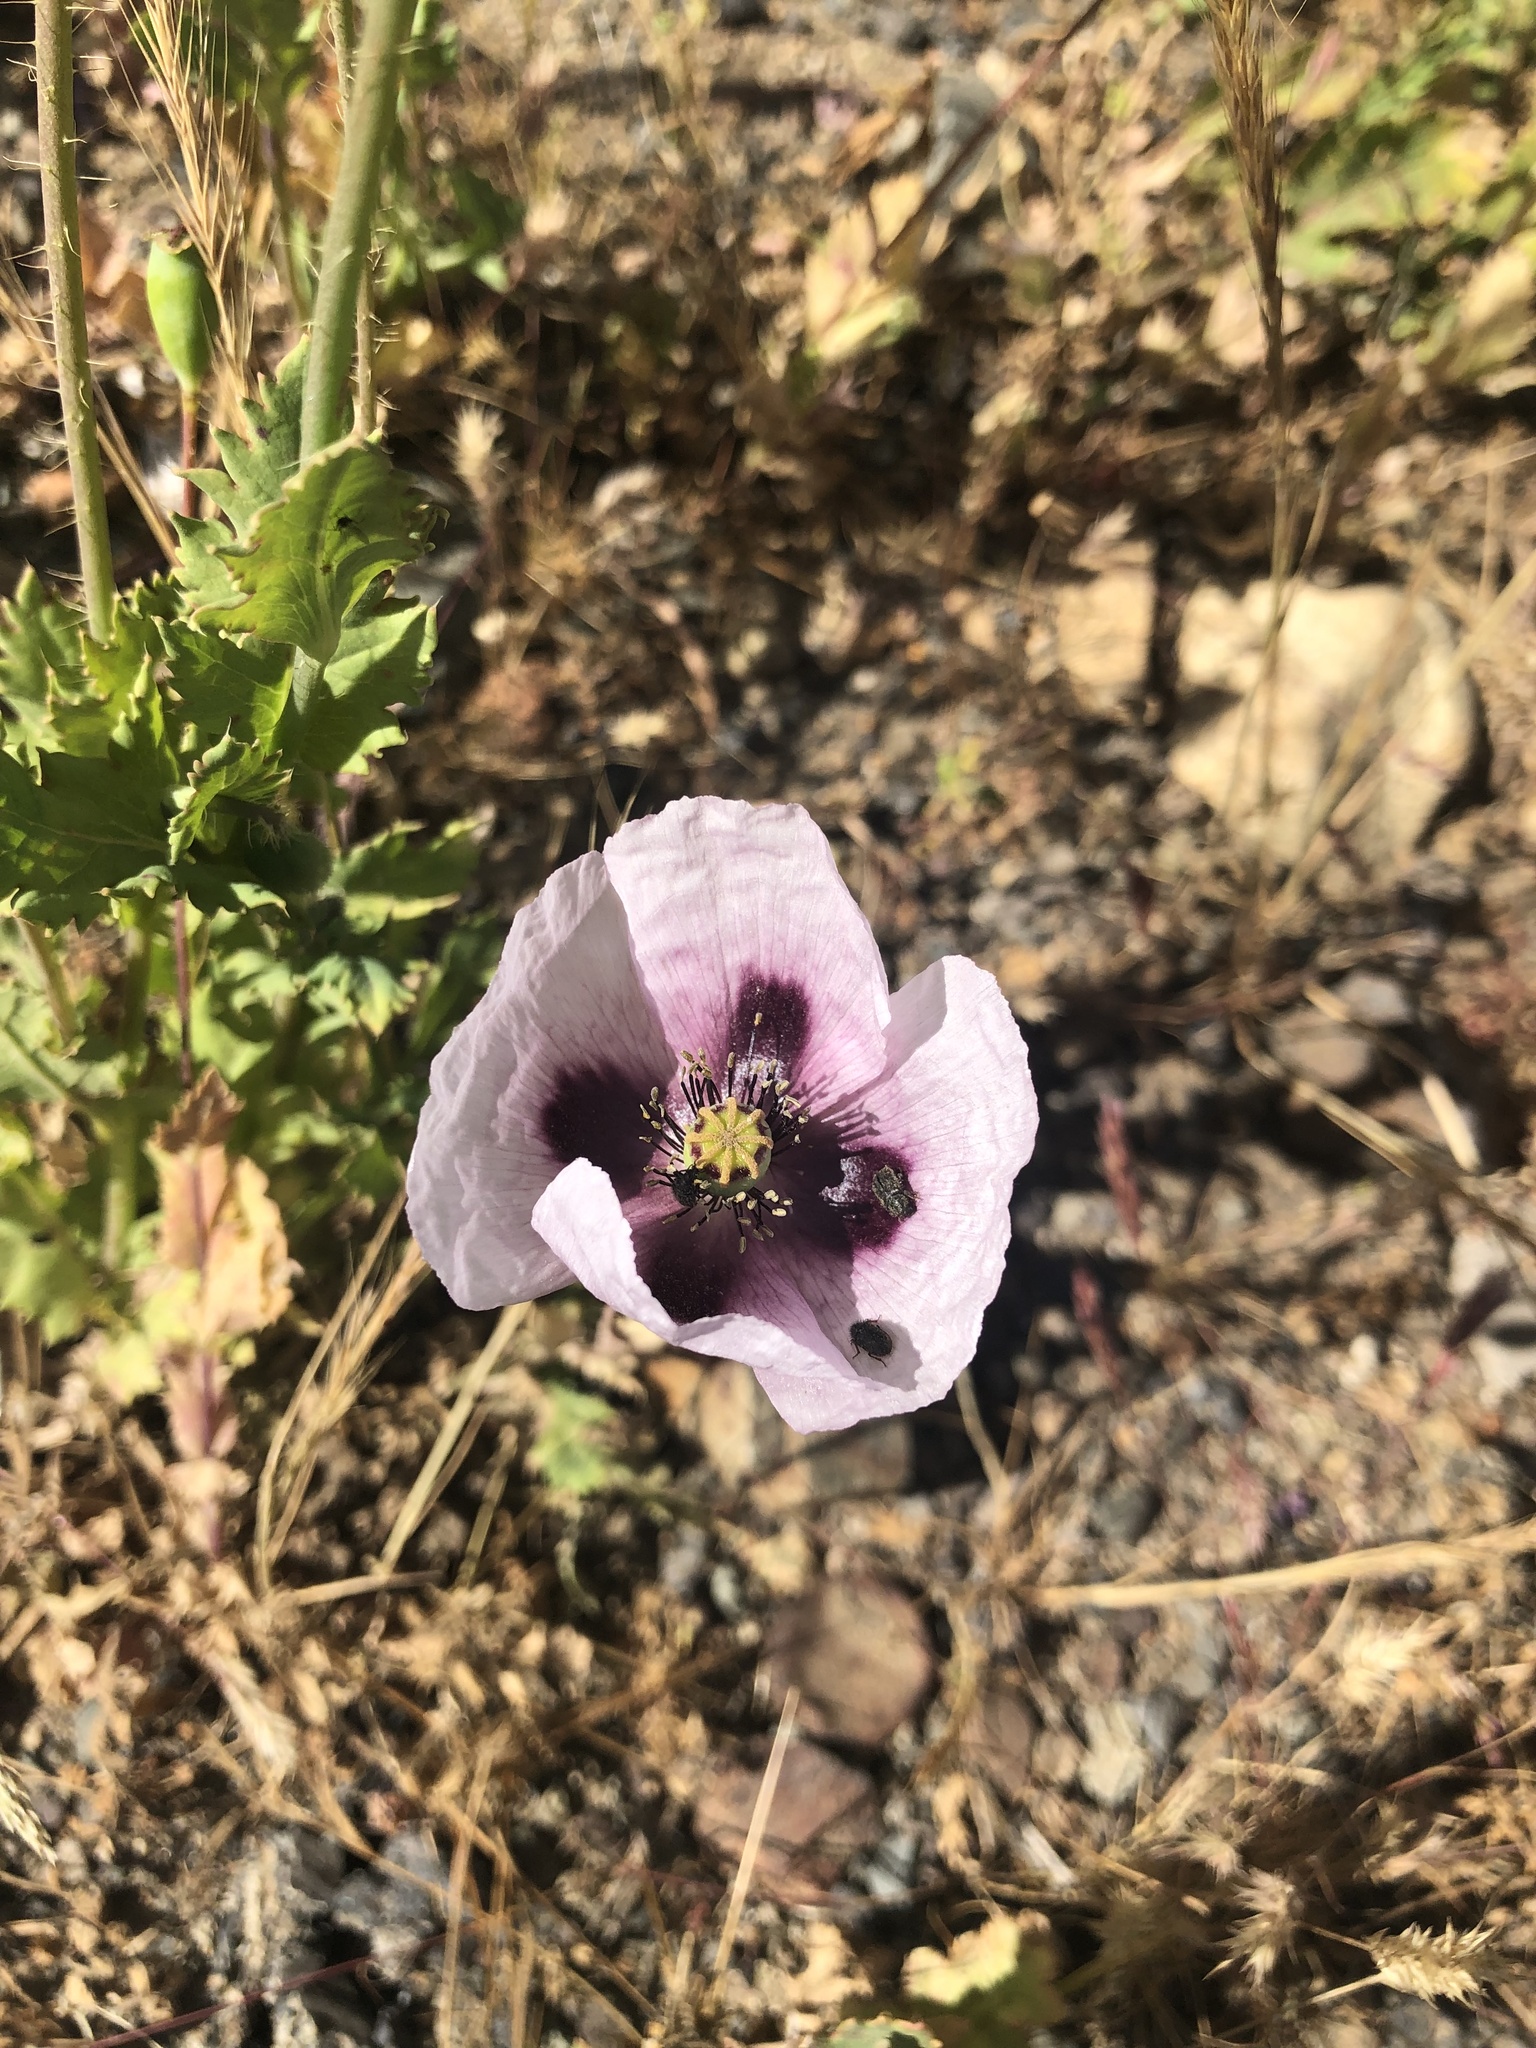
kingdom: Plantae
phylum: Tracheophyta
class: Magnoliopsida
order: Ranunculales
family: Papaveraceae
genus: Papaver
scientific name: Papaver somniferum
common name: Opium poppy
